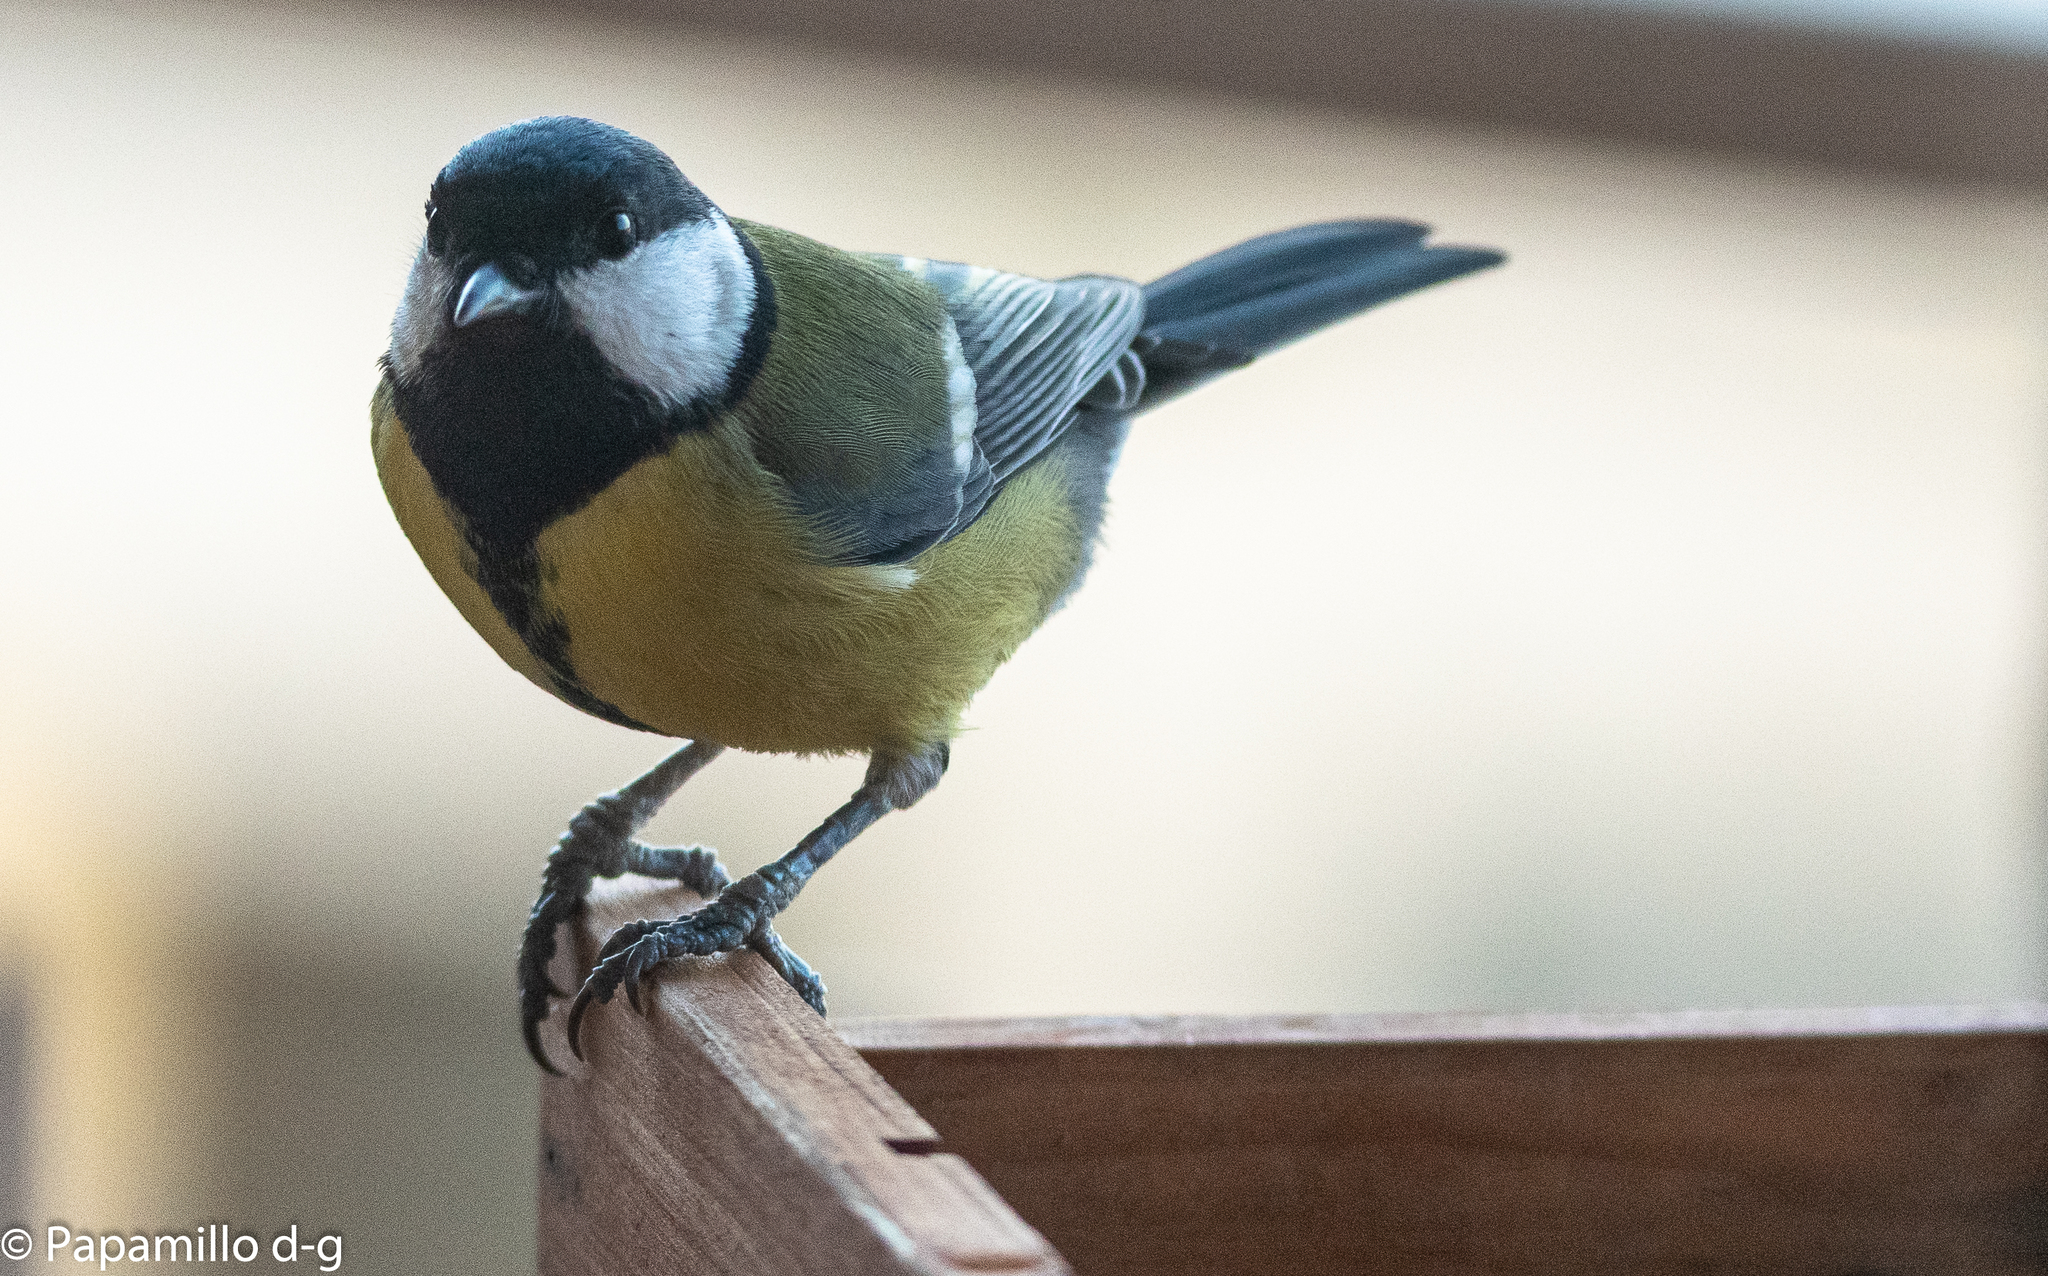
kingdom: Animalia
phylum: Chordata
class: Aves
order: Passeriformes
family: Paridae
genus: Parus
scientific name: Parus major
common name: Great tit
